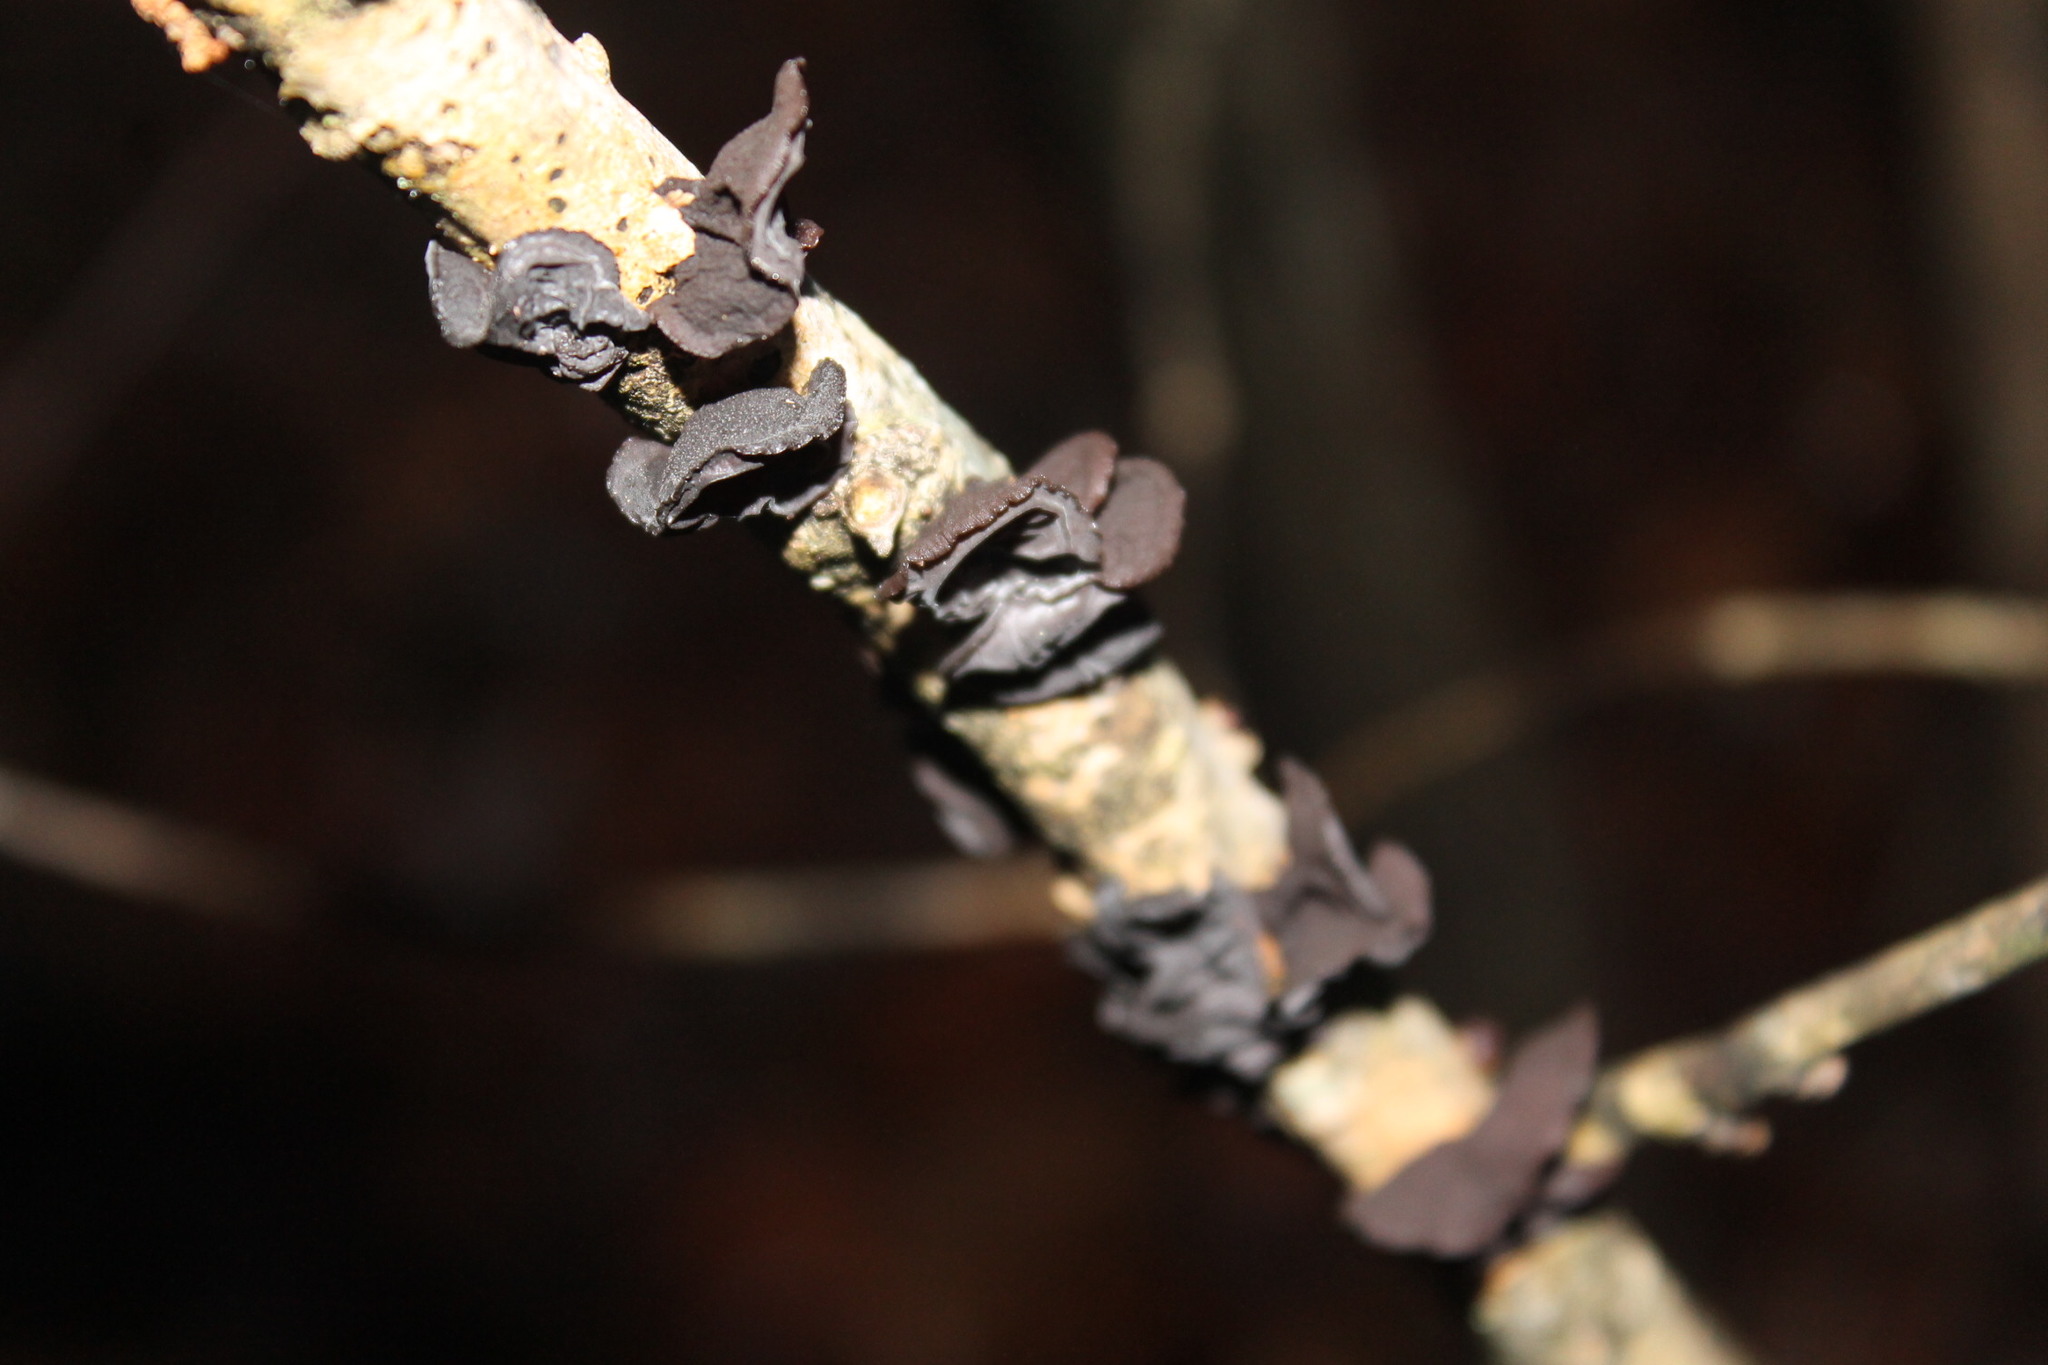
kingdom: Fungi
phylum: Basidiomycota
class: Agaricomycetes
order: Auriculariales
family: Auriculariaceae
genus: Exidia
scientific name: Exidia
